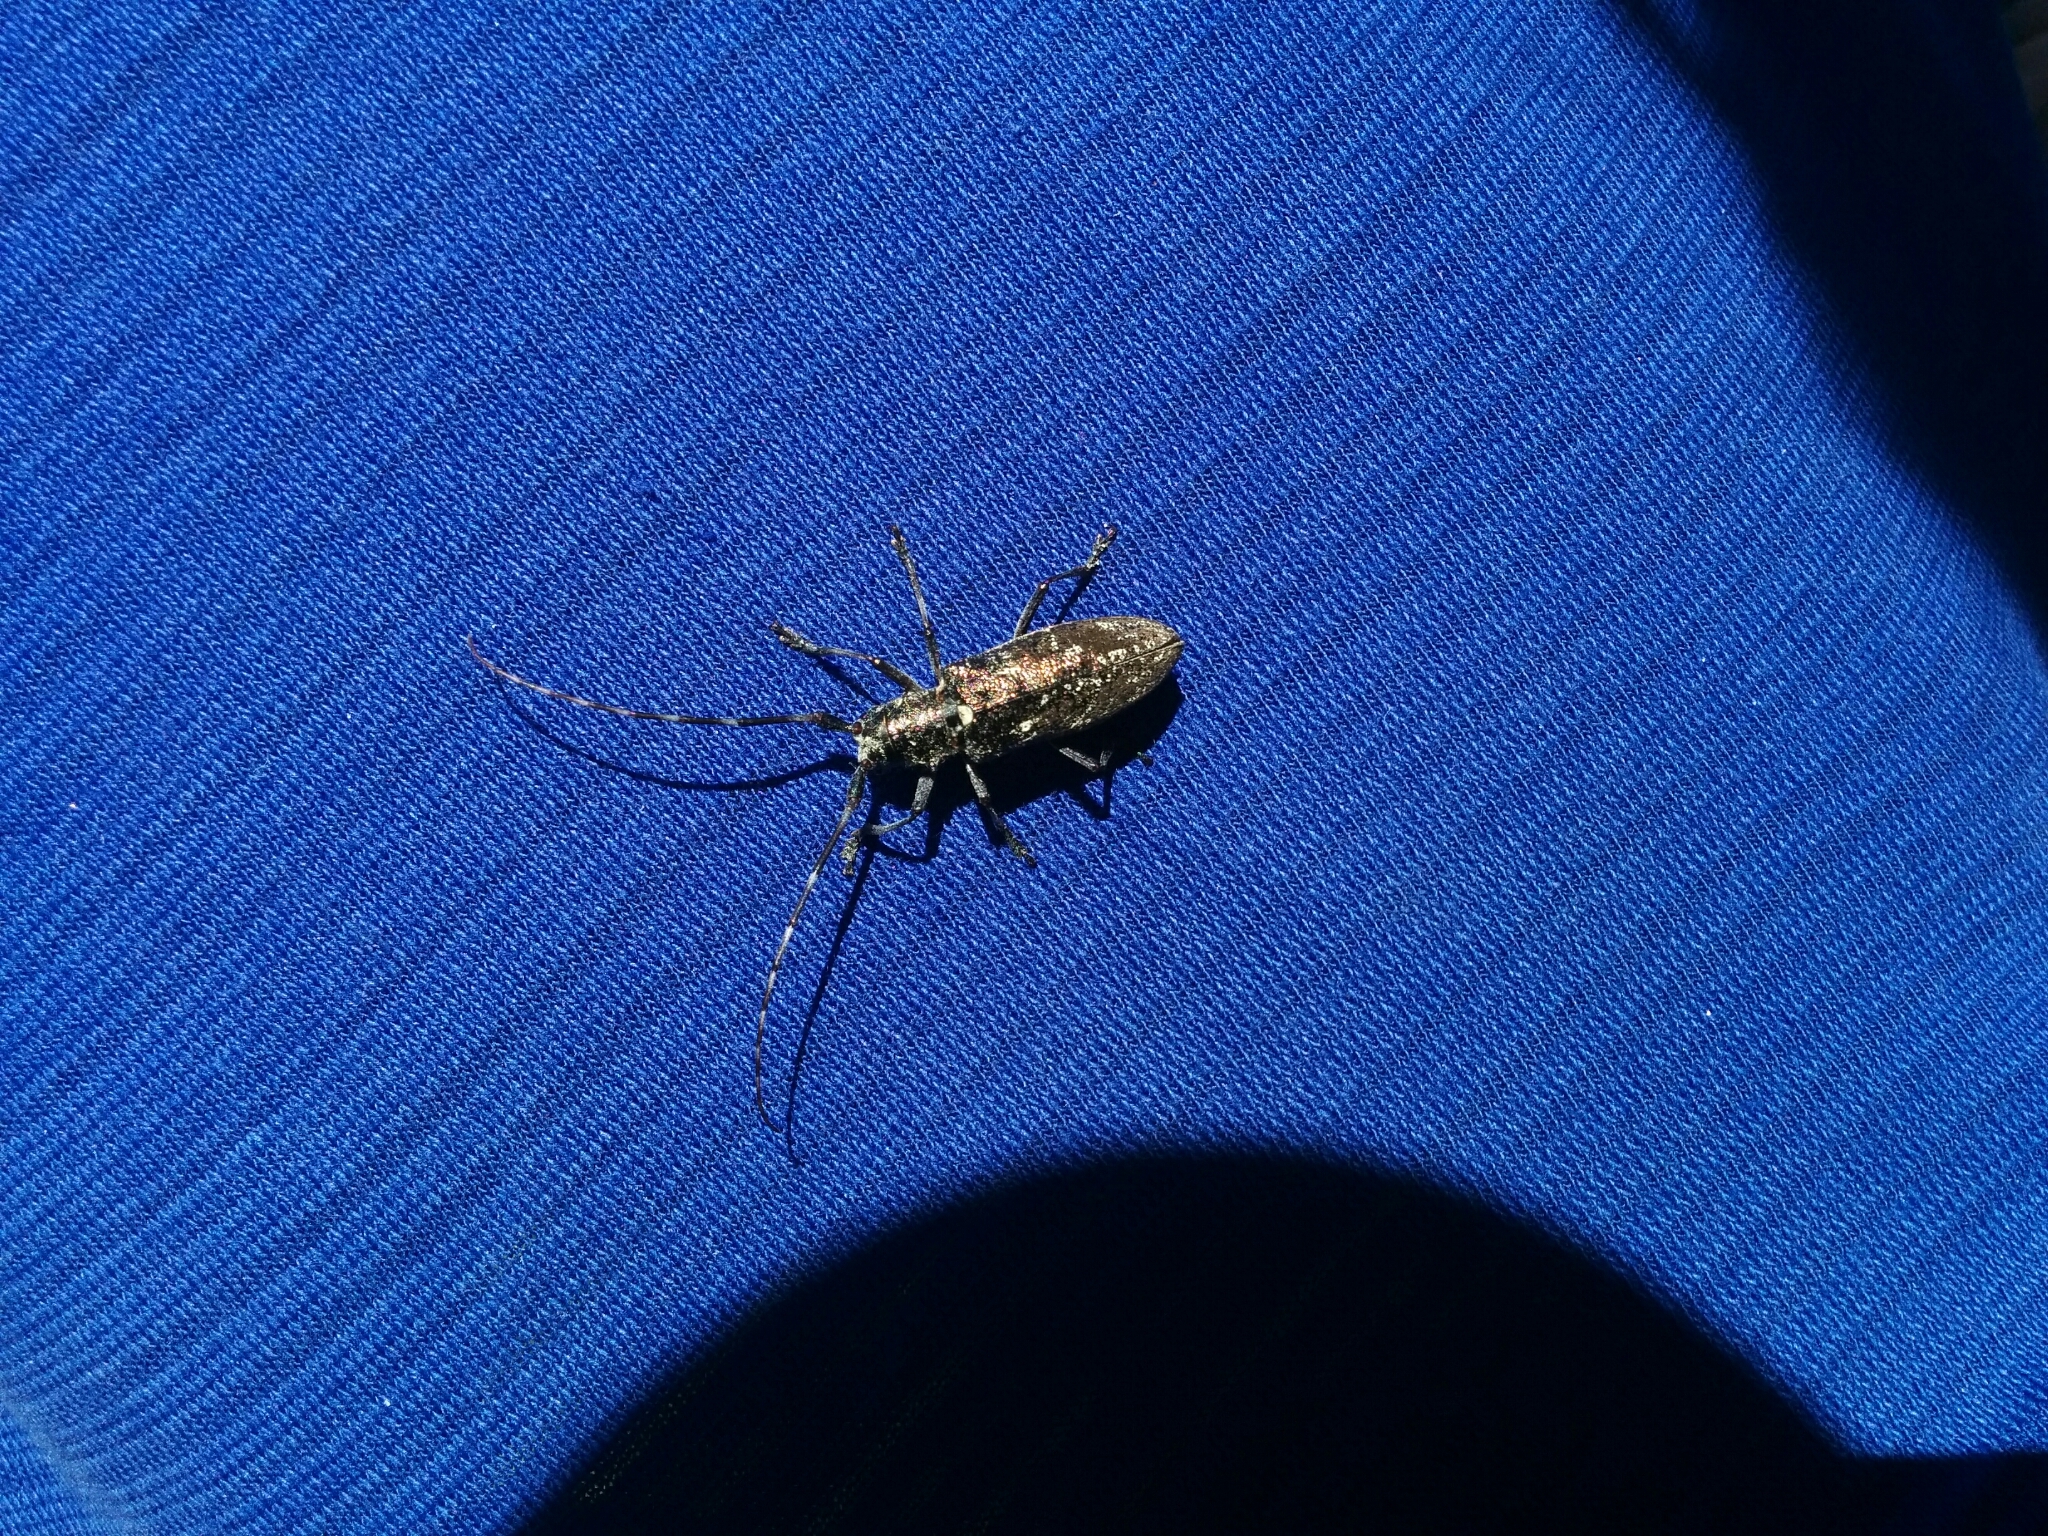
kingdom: Animalia
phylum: Arthropoda
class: Insecta
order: Coleoptera
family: Cerambycidae
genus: Monochamus
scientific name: Monochamus scutellatus
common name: White-spotted sawyer beetle
